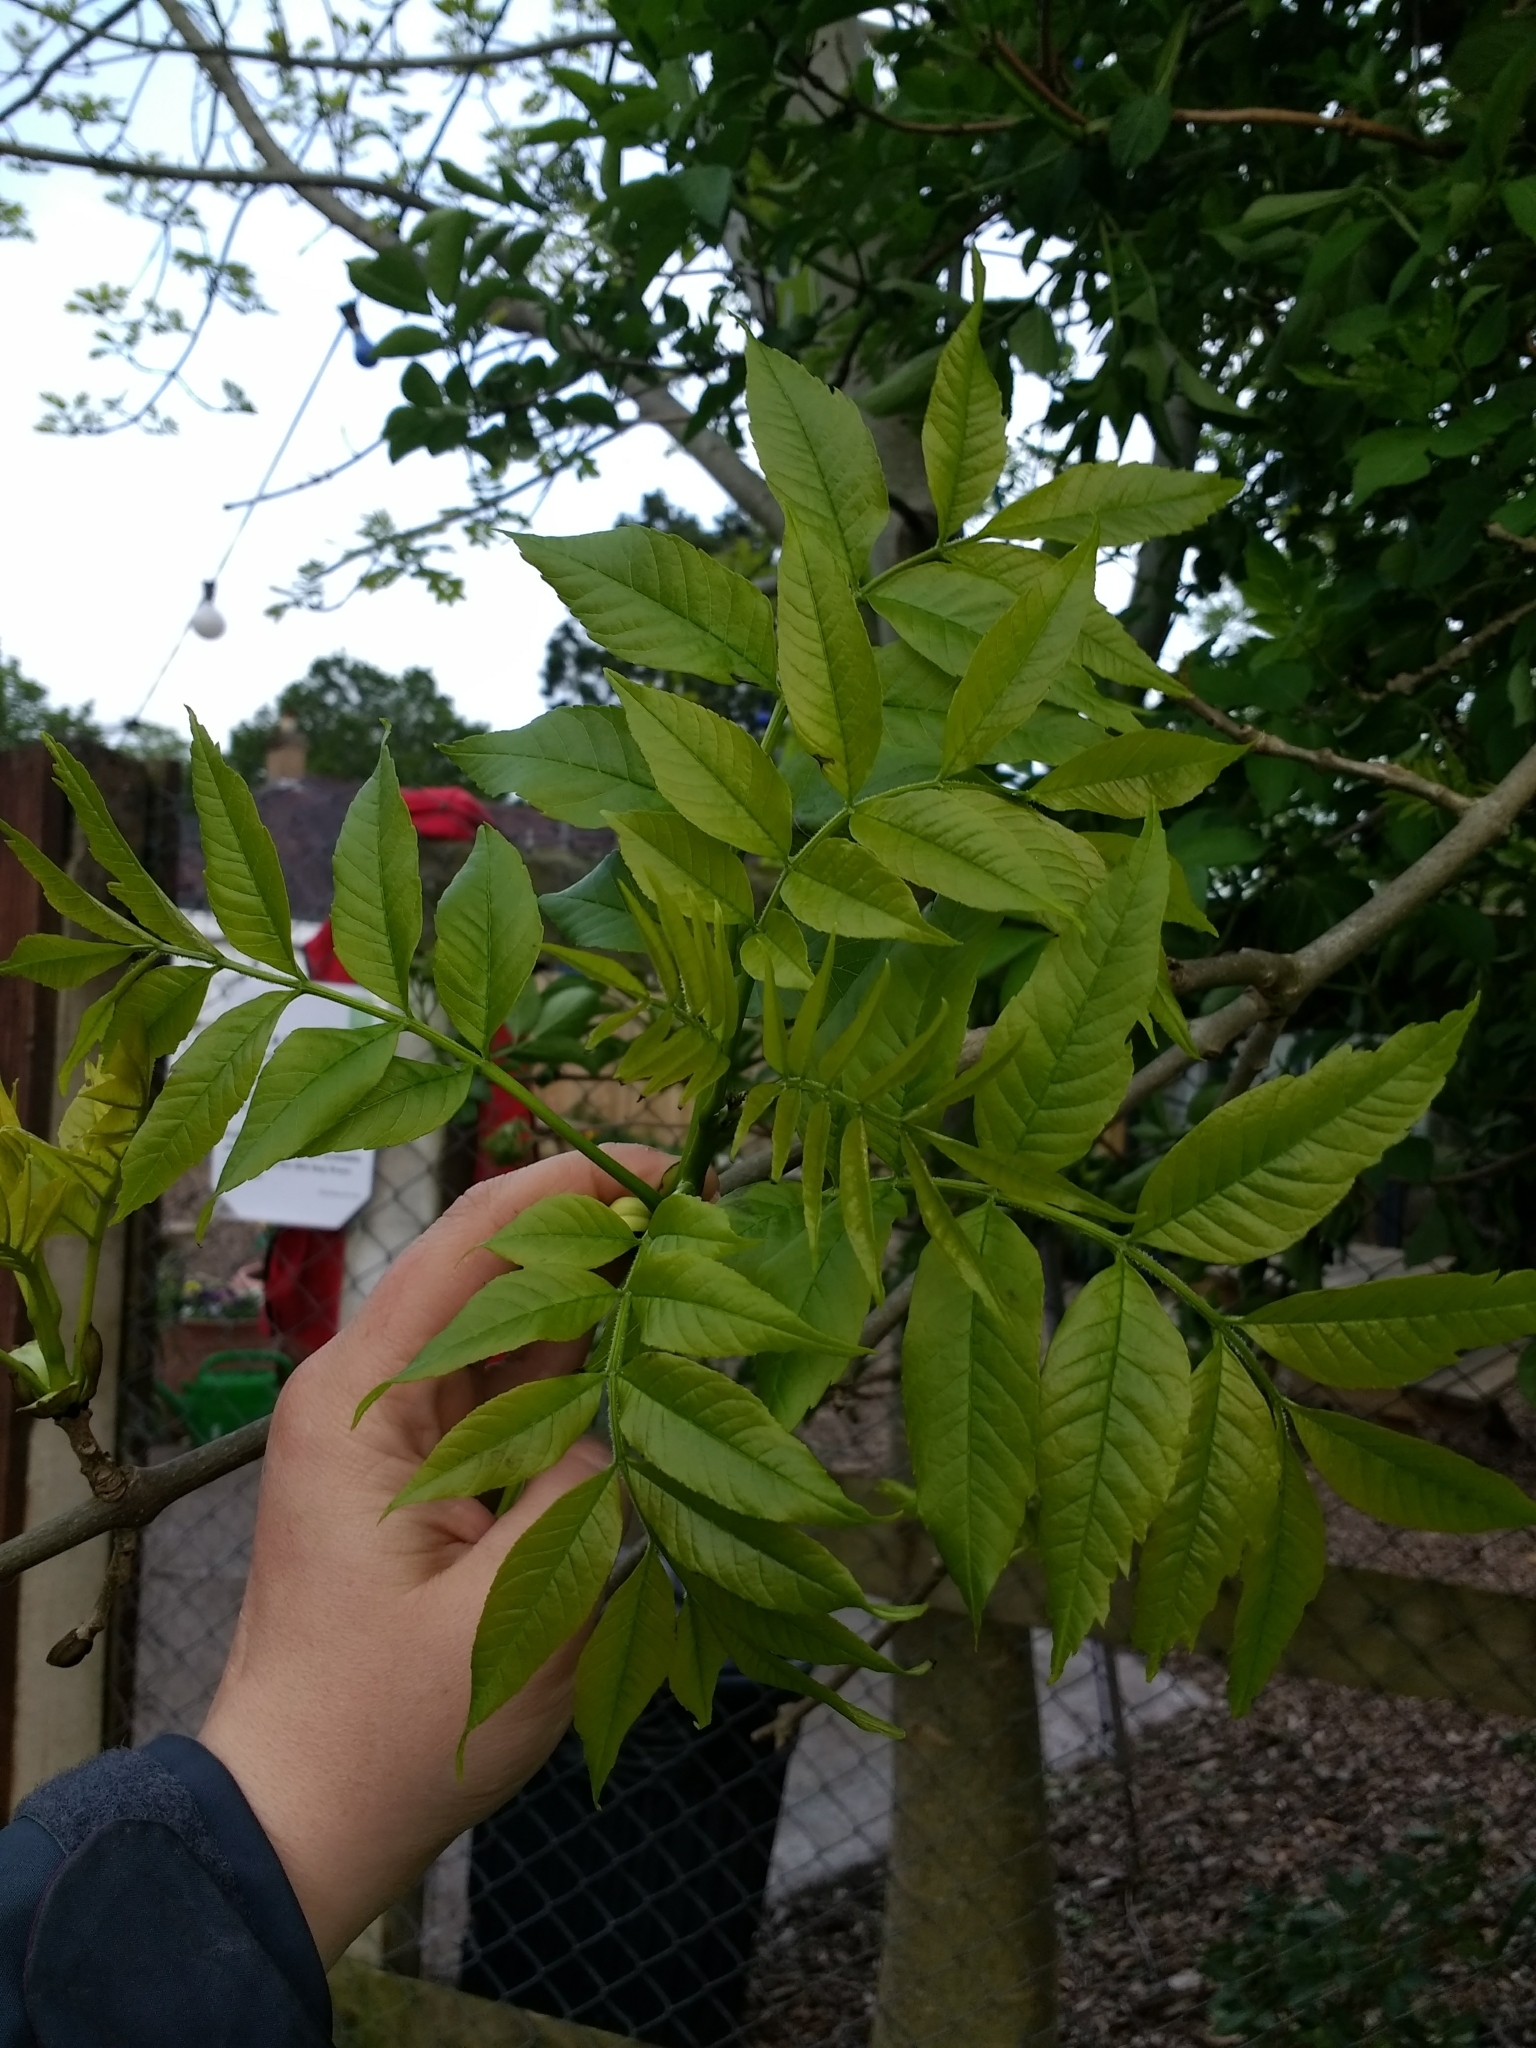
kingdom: Plantae
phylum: Tracheophyta
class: Magnoliopsida
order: Lamiales
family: Oleaceae
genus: Fraxinus
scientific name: Fraxinus excelsior
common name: European ash
